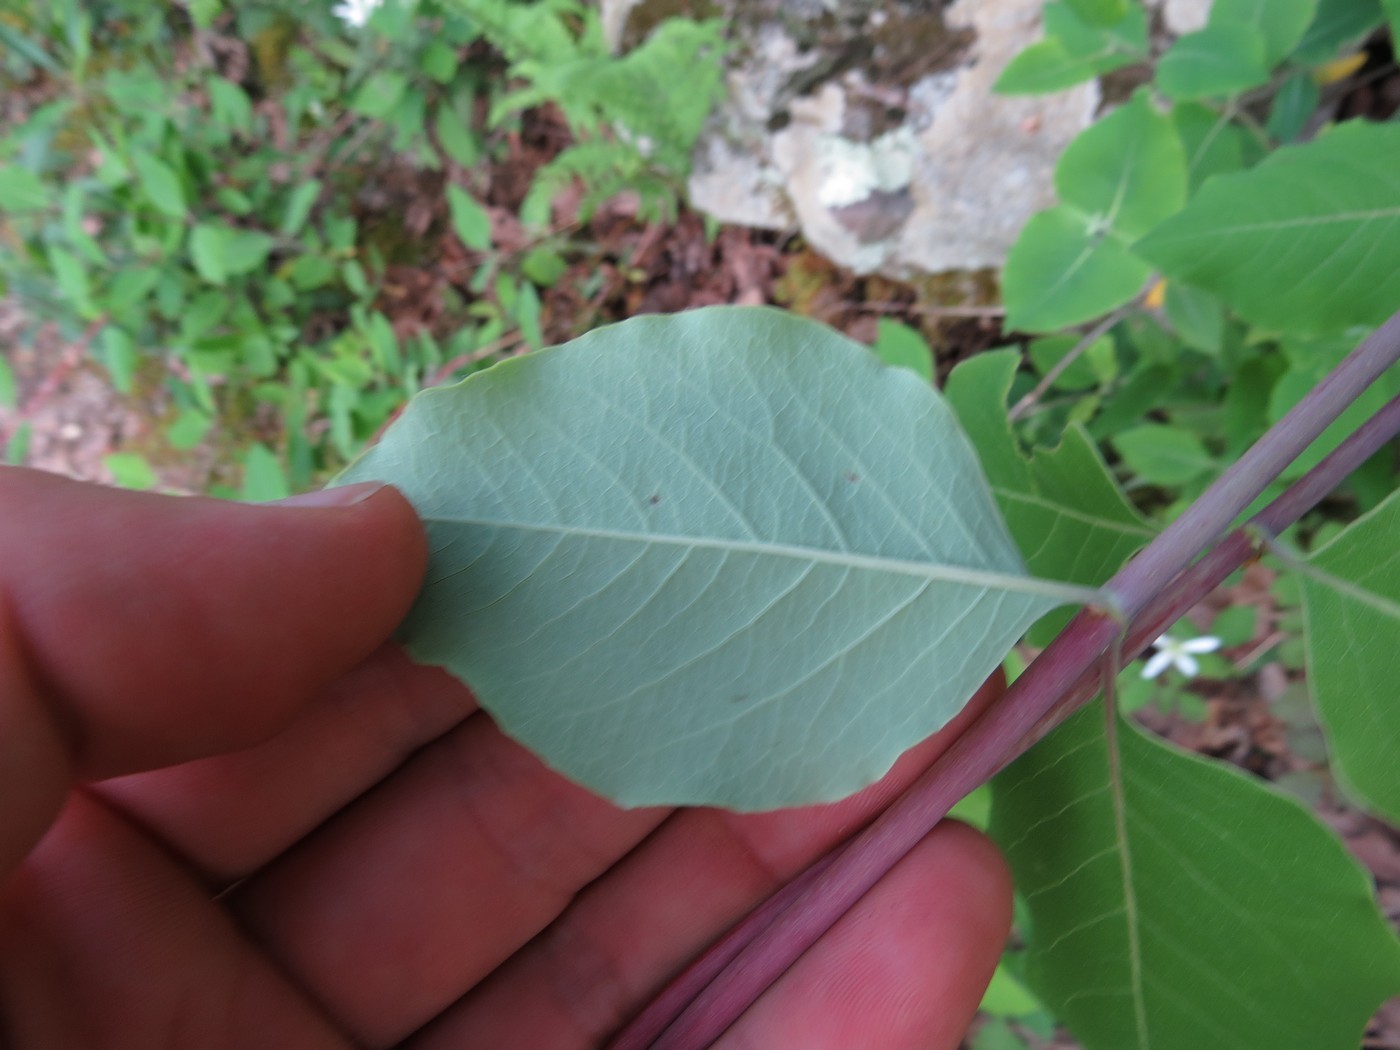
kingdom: Plantae
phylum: Tracheophyta
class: Magnoliopsida
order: Dipsacales
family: Caprifoliaceae
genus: Lonicera
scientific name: Lonicera flava
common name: Yellow honeysuckle
